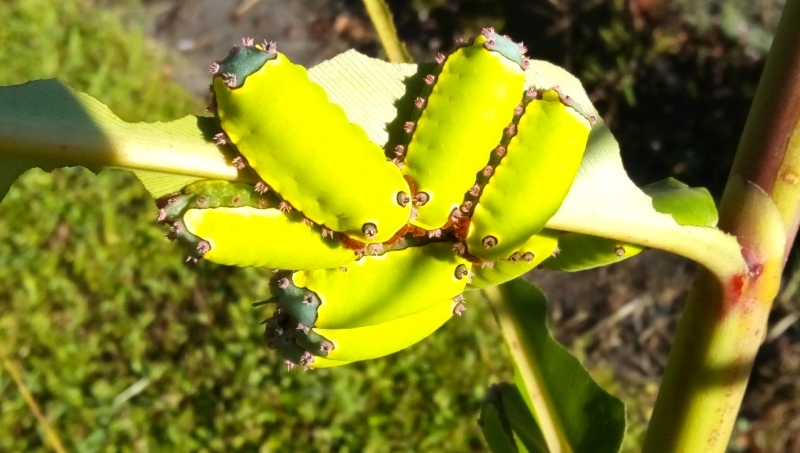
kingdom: Animalia
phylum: Arthropoda
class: Insecta
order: Lepidoptera
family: Limacodidae
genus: Acharia
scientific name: Acharia
